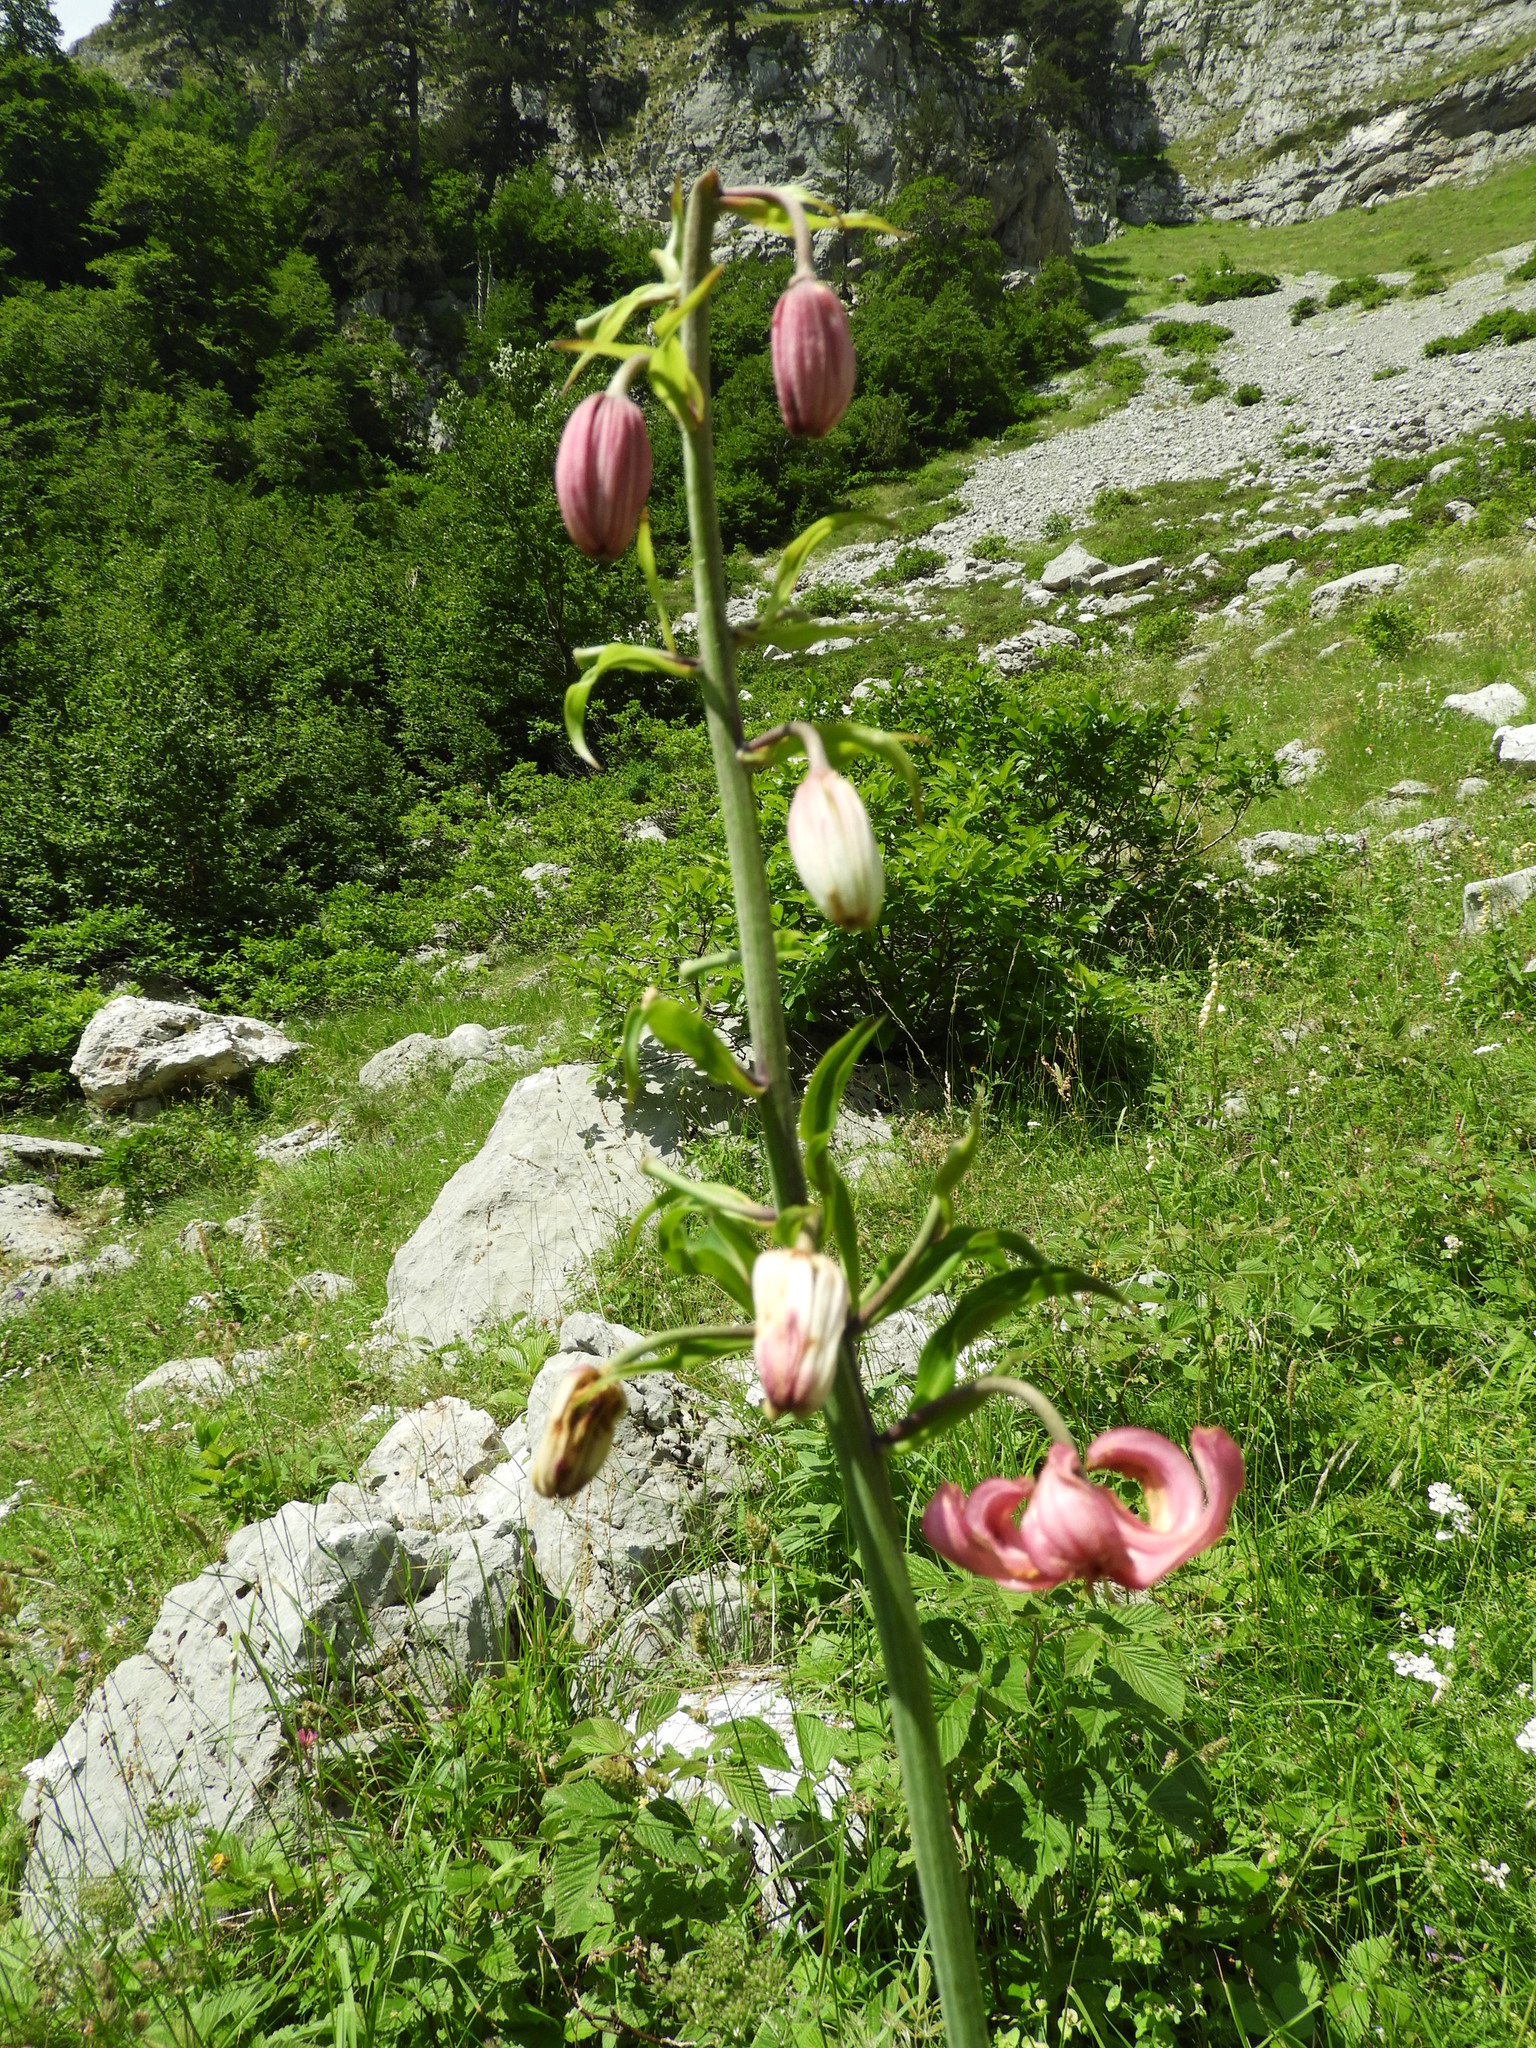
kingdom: Plantae
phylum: Tracheophyta
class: Liliopsida
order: Liliales
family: Liliaceae
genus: Lilium
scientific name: Lilium martagon
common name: Martagon lily
